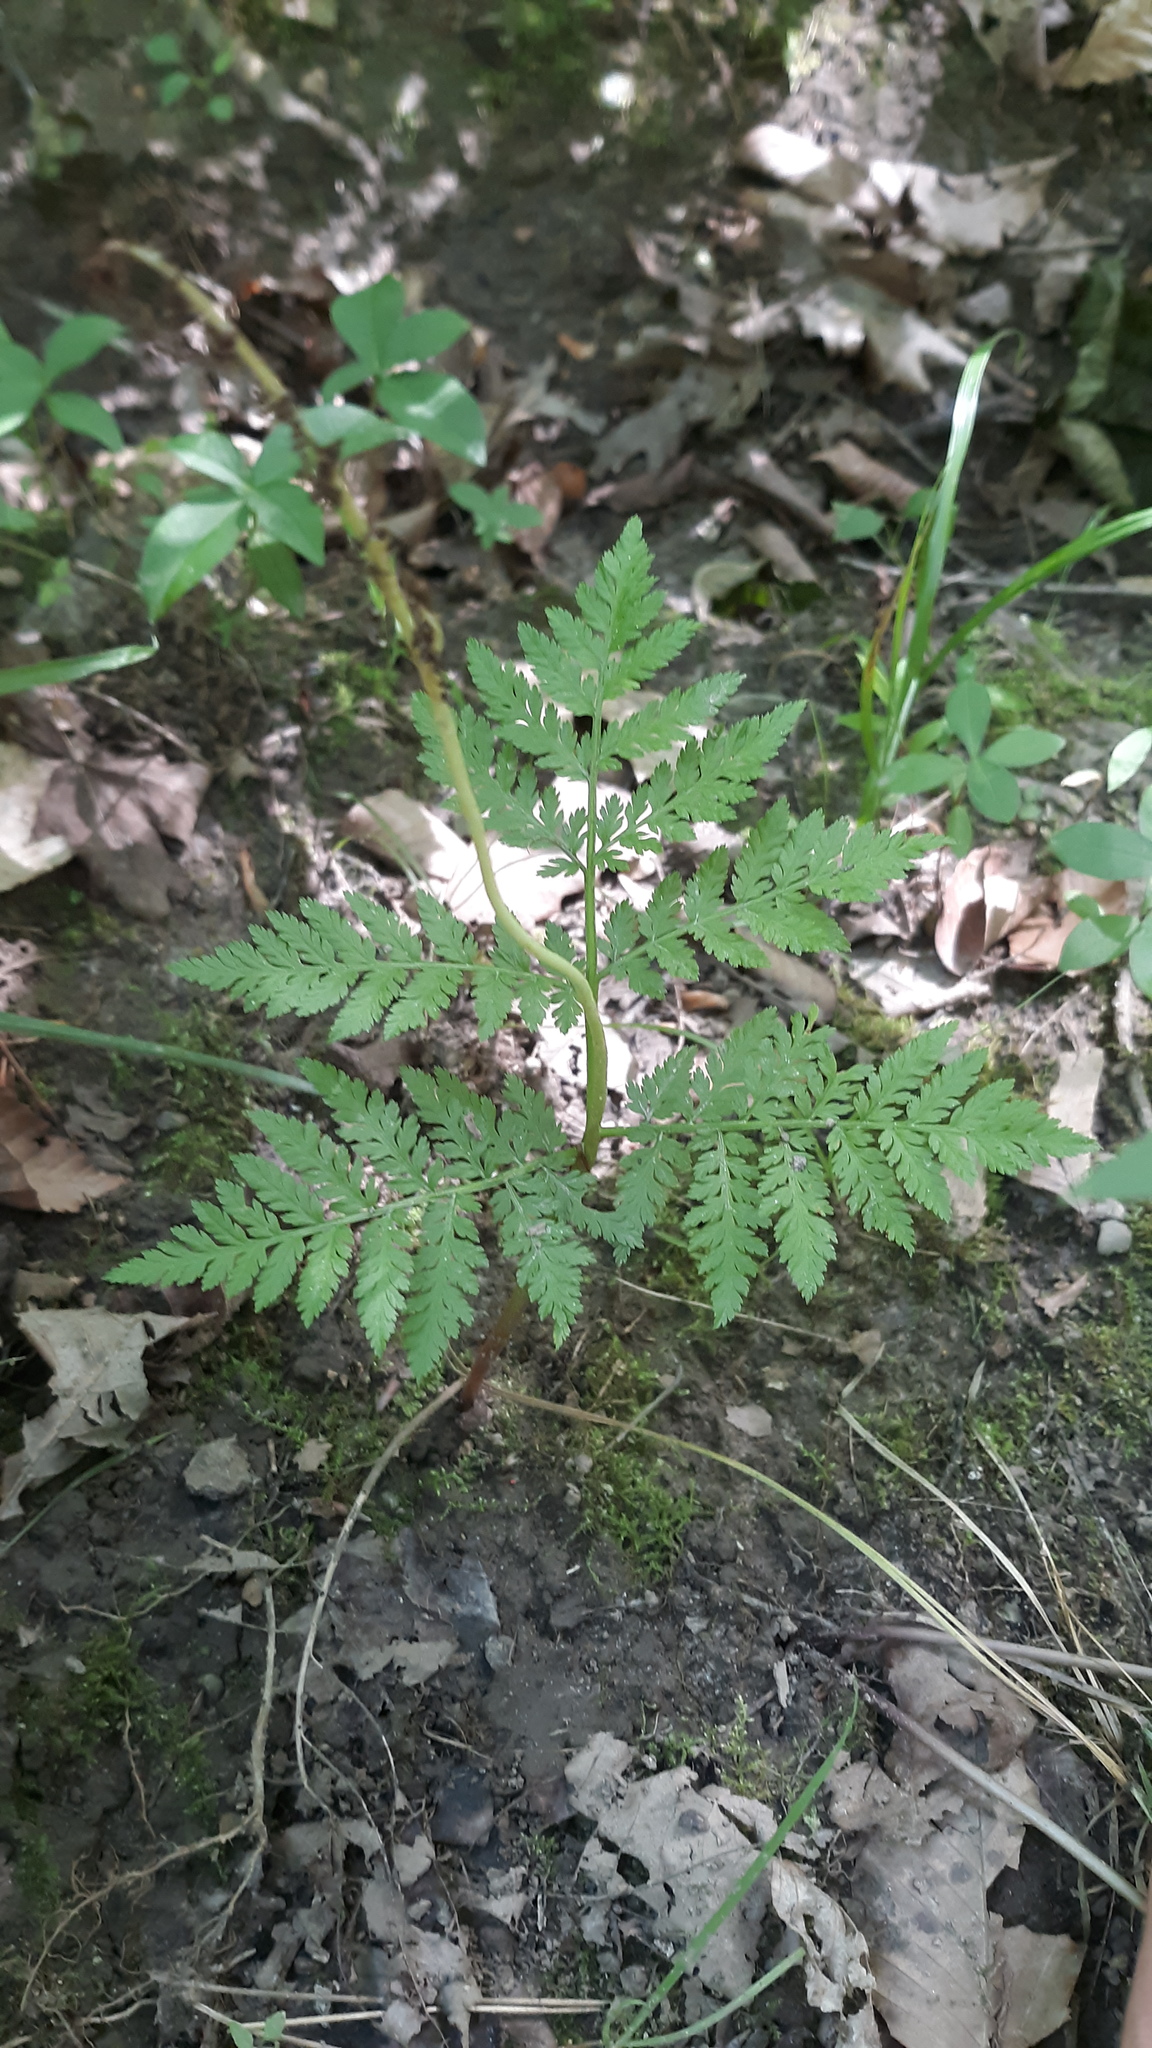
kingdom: Plantae
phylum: Tracheophyta
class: Polypodiopsida
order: Ophioglossales
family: Ophioglossaceae
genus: Botrypus
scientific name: Botrypus virginianus
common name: Common grapefern
